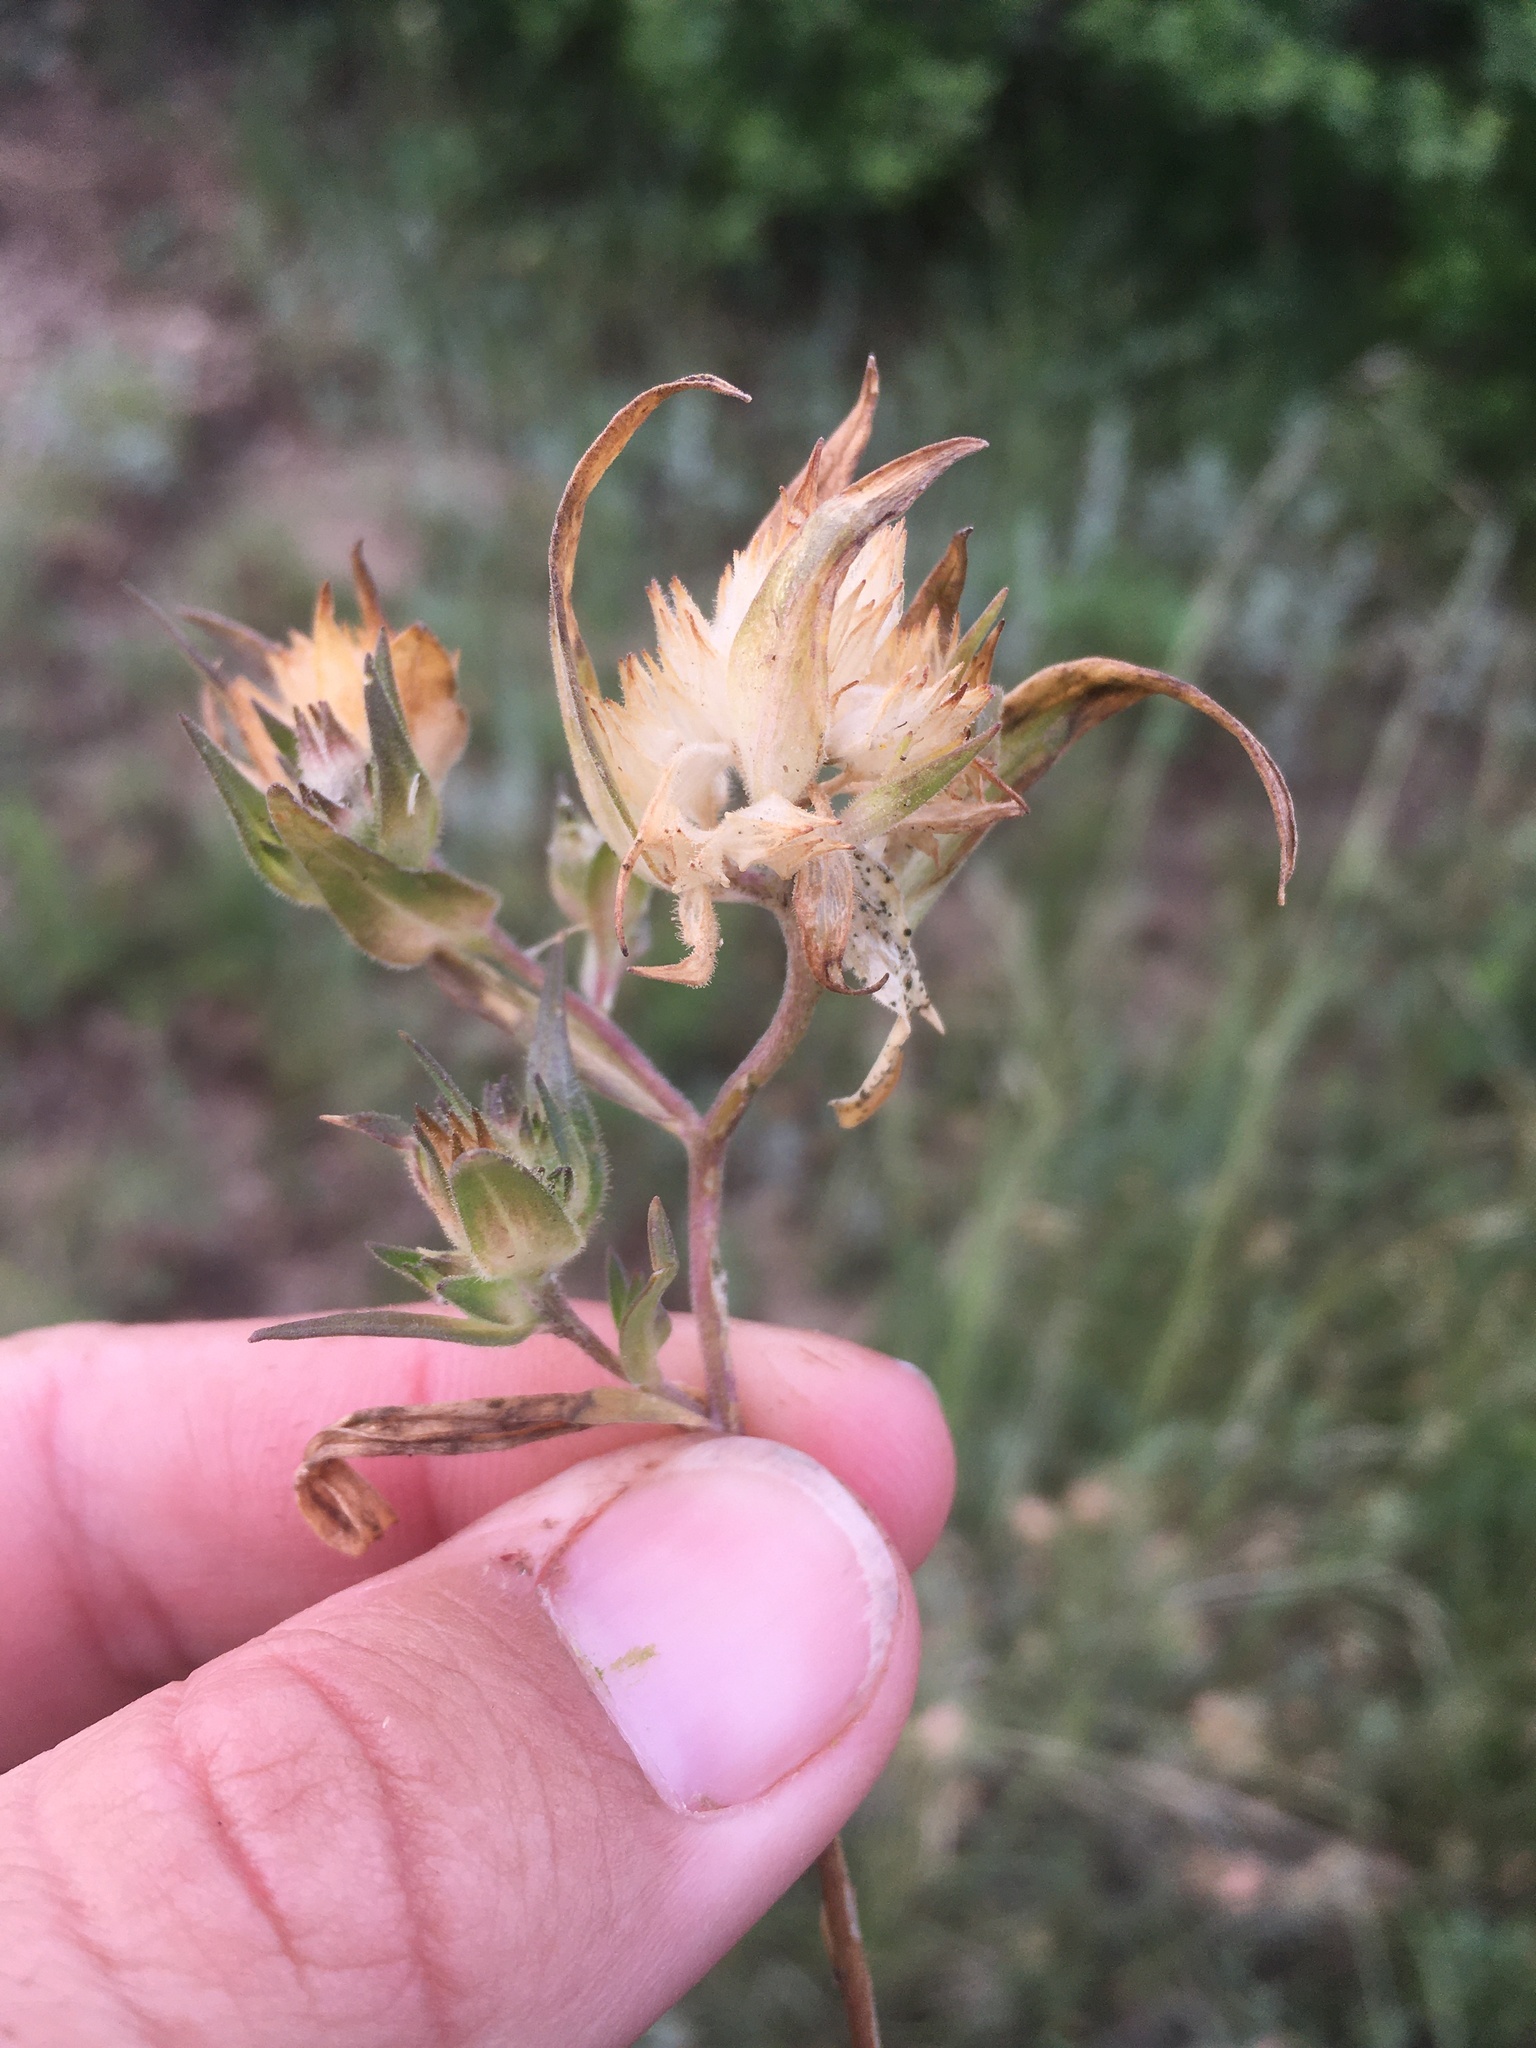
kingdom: Plantae
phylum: Tracheophyta
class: Magnoliopsida
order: Ericales
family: Polemoniaceae
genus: Collomia
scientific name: Collomia linearis
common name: Tiny trumpet
